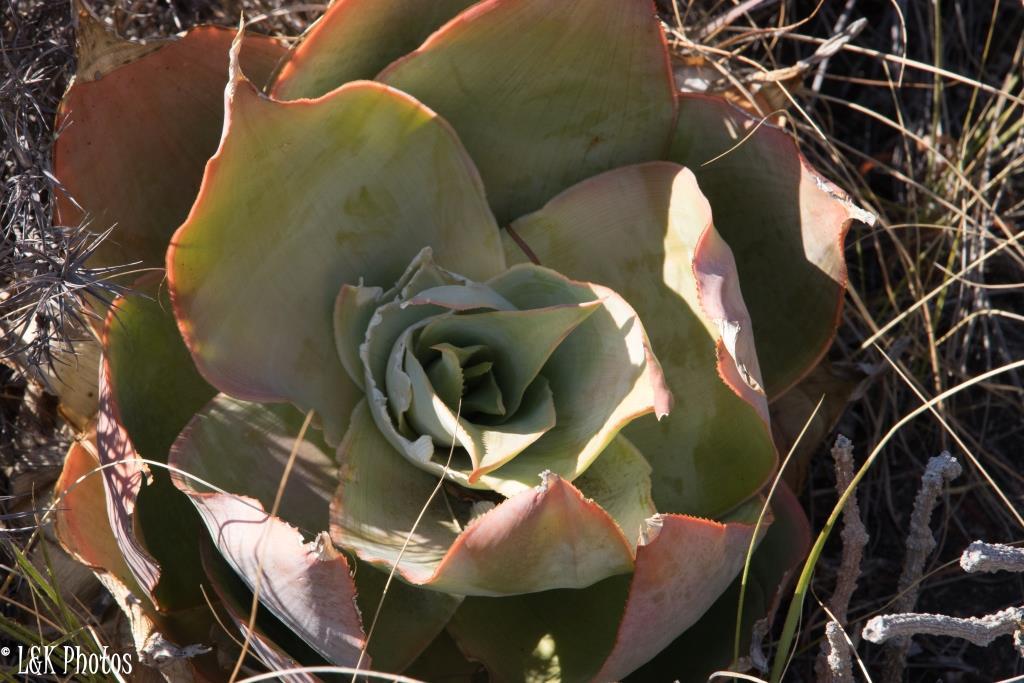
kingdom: Plantae
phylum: Tracheophyta
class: Liliopsida
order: Asparagales
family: Asphodelaceae
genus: Aloe
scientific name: Aloe imalotensis
